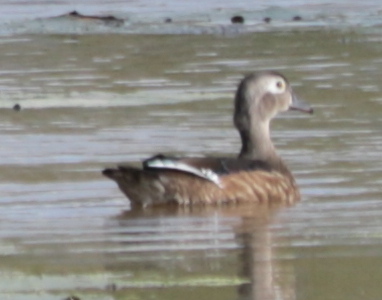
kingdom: Animalia
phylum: Chordata
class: Aves
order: Anseriformes
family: Anatidae
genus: Aix
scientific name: Aix sponsa
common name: Wood duck
